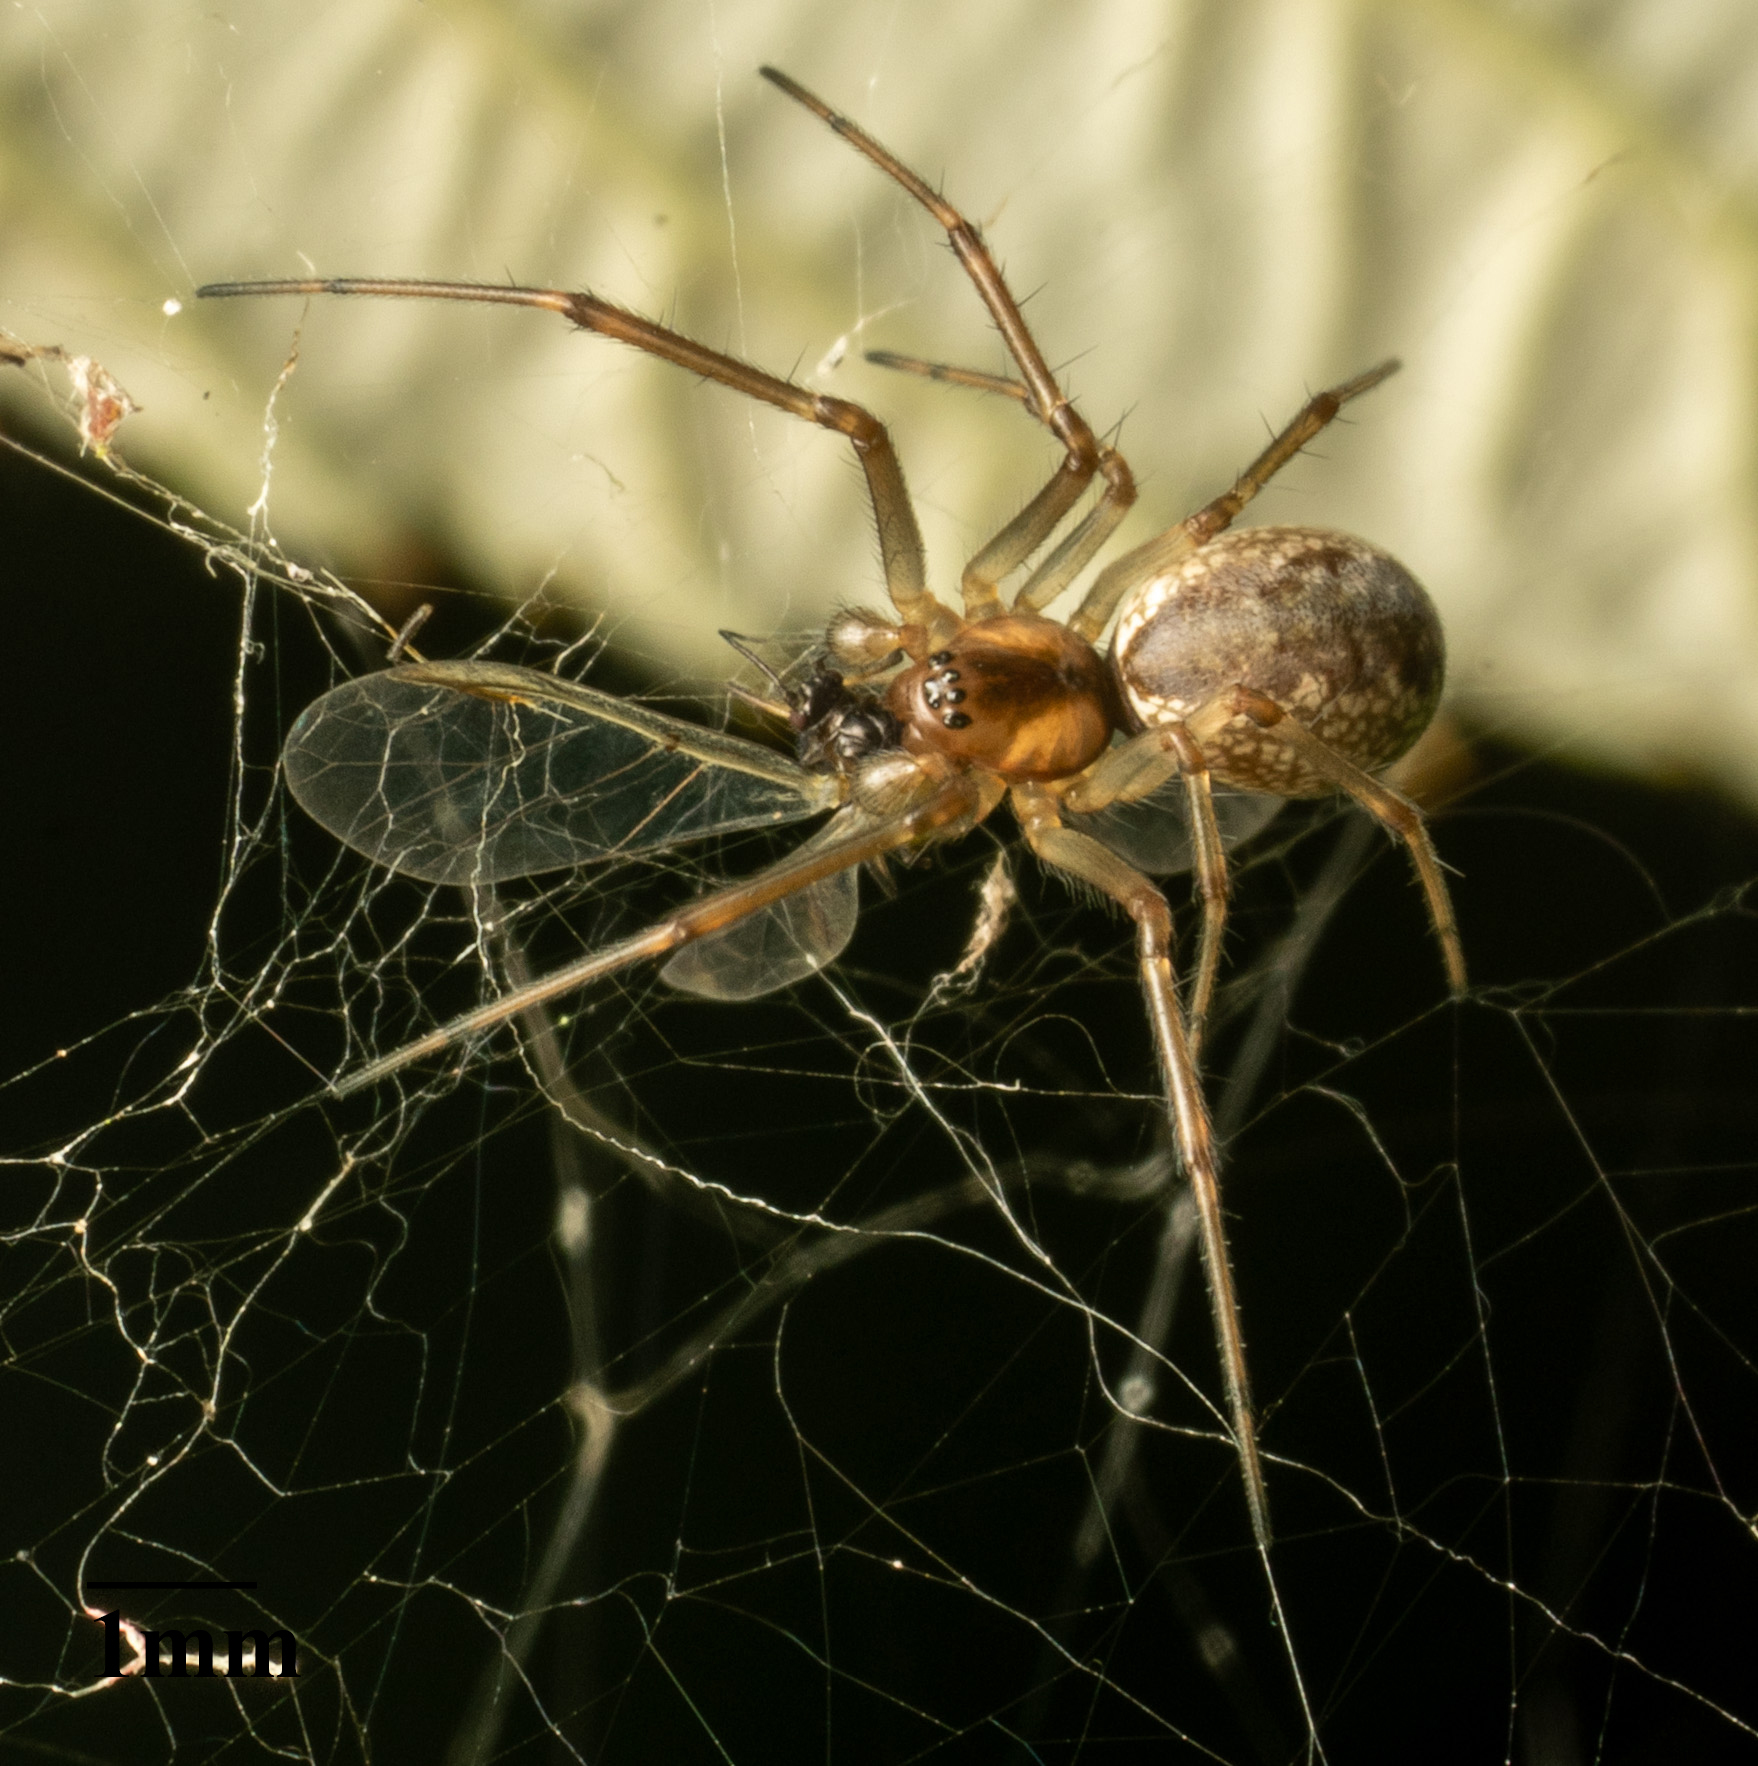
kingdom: Animalia
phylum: Arthropoda
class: Arachnida
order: Araneae
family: Linyphiidae
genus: Neriene
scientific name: Neriene peltata
